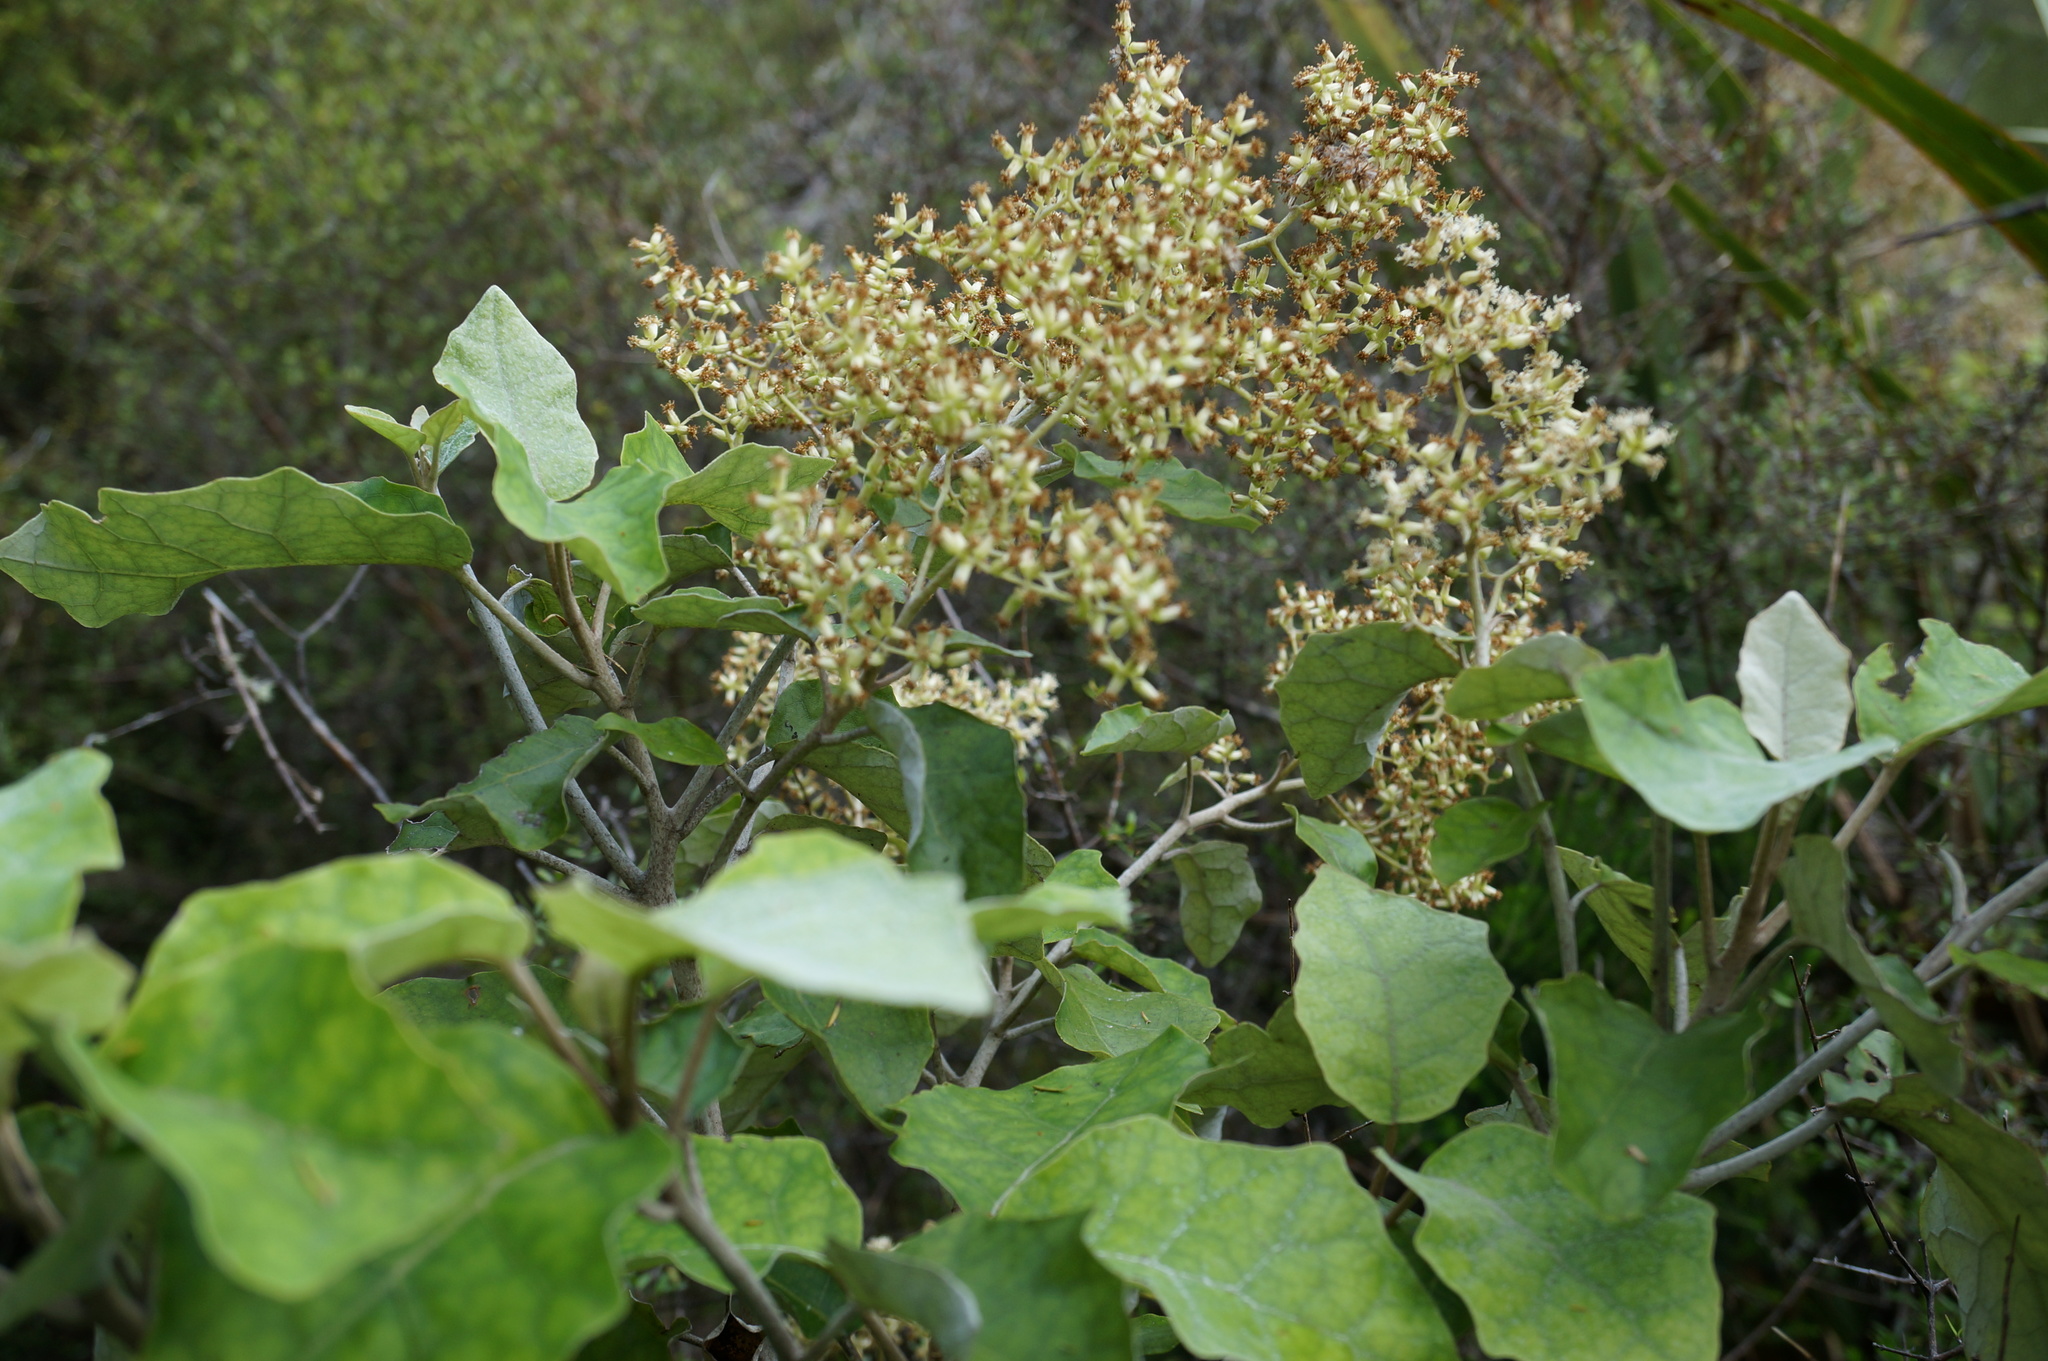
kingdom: Plantae
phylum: Tracheophyta
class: Magnoliopsida
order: Asterales
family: Asteraceae
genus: Brachyglottis
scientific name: Brachyglottis repanda
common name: Hedge ragwort
